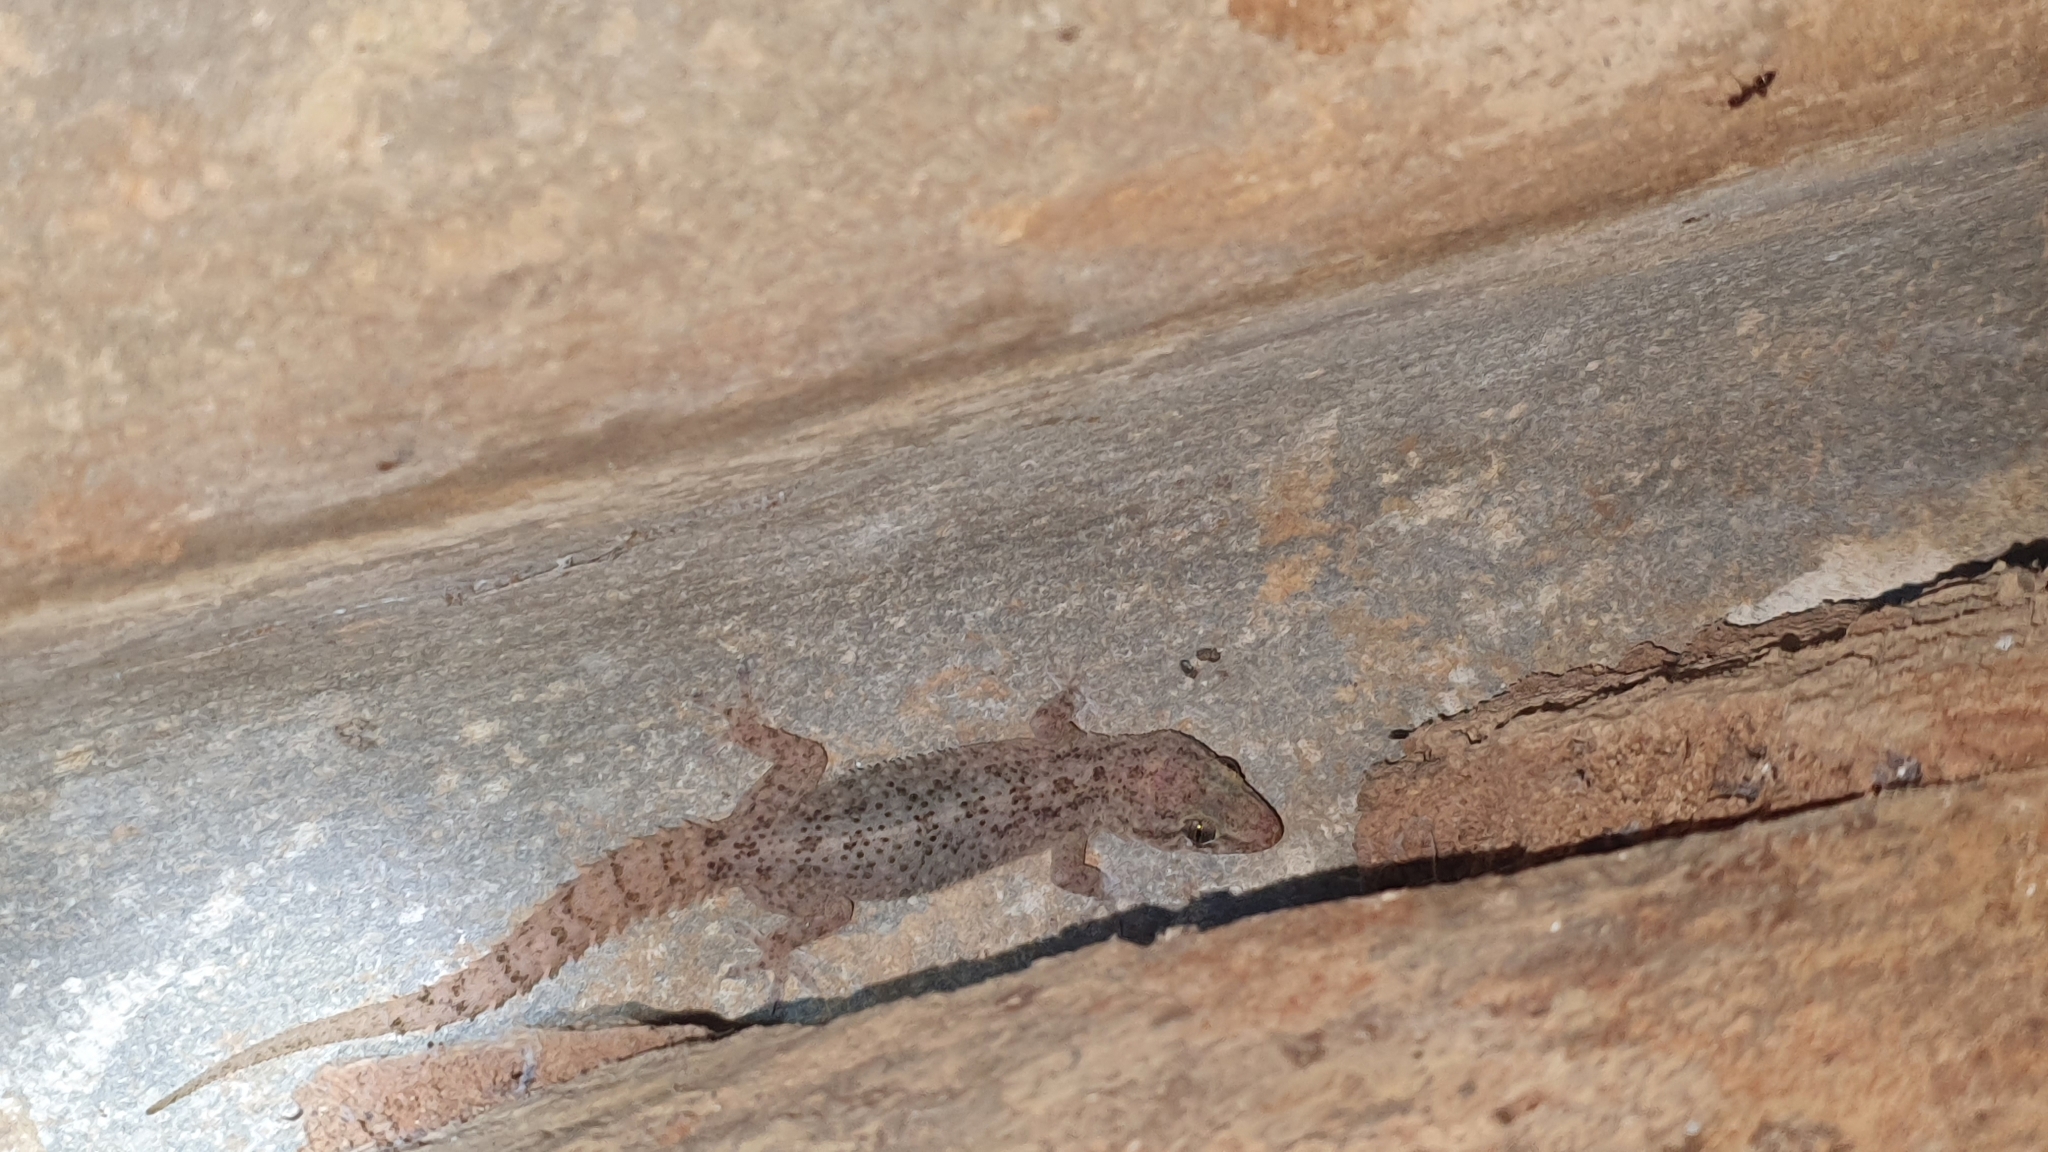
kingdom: Animalia
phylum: Chordata
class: Squamata
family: Gekkonidae
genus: Hemidactylus
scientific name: Hemidactylus parvimaculatus
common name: Spotted house gecko
